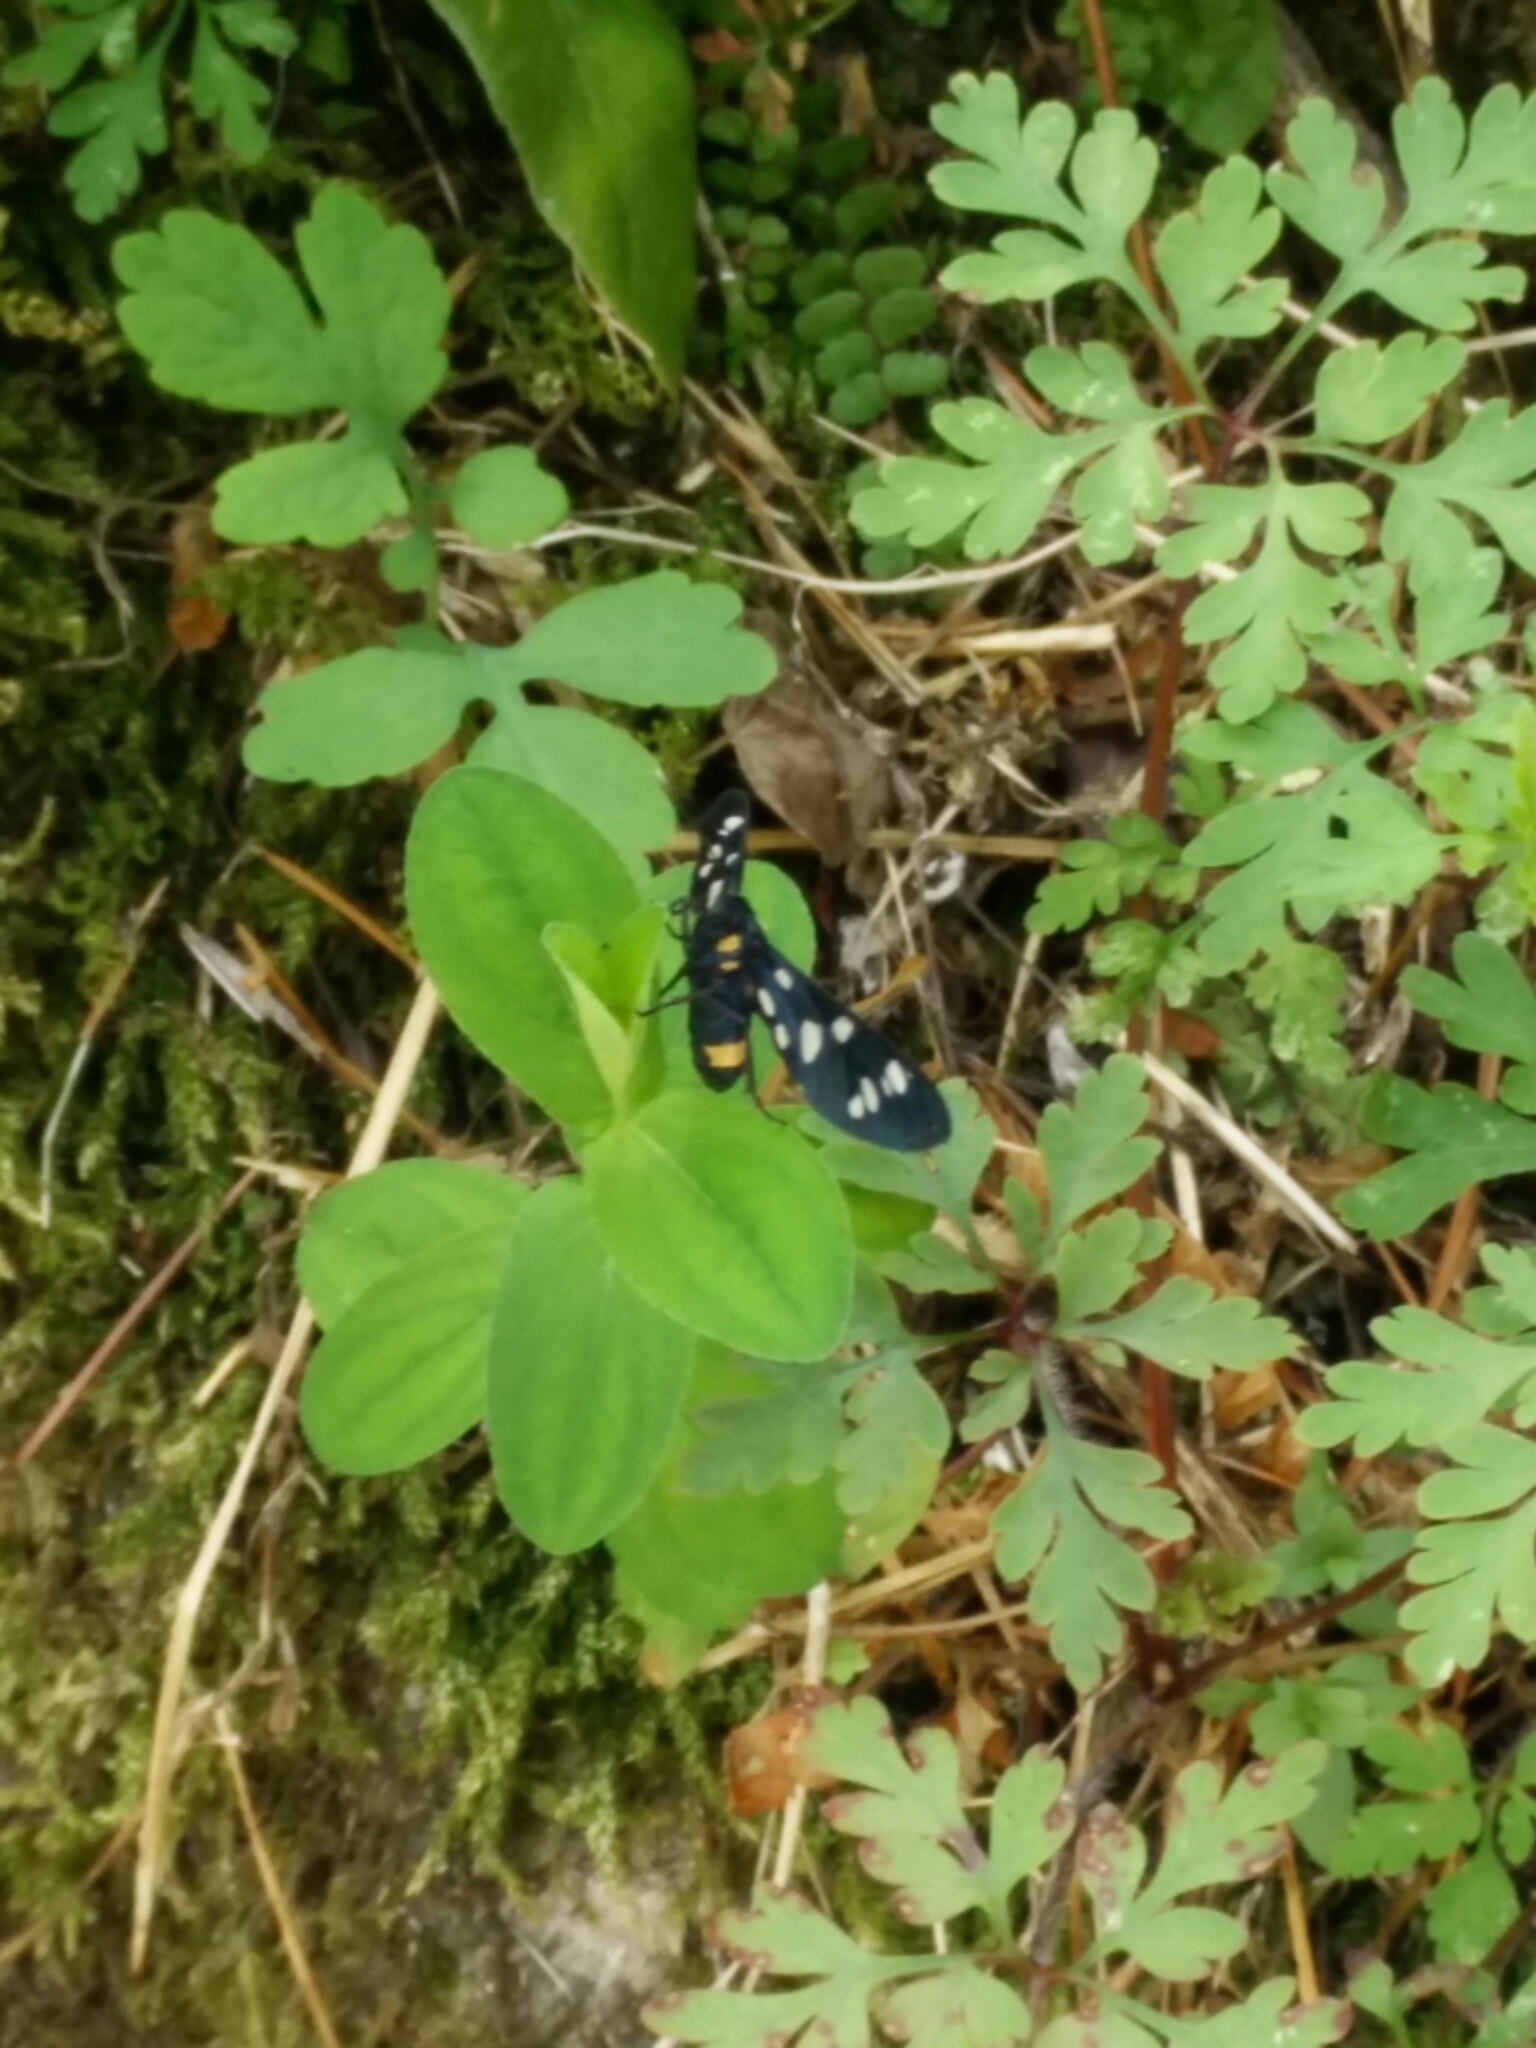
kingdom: Animalia
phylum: Arthropoda
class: Insecta
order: Lepidoptera
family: Erebidae
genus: Amata
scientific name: Amata phegea
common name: Nine-spotted
